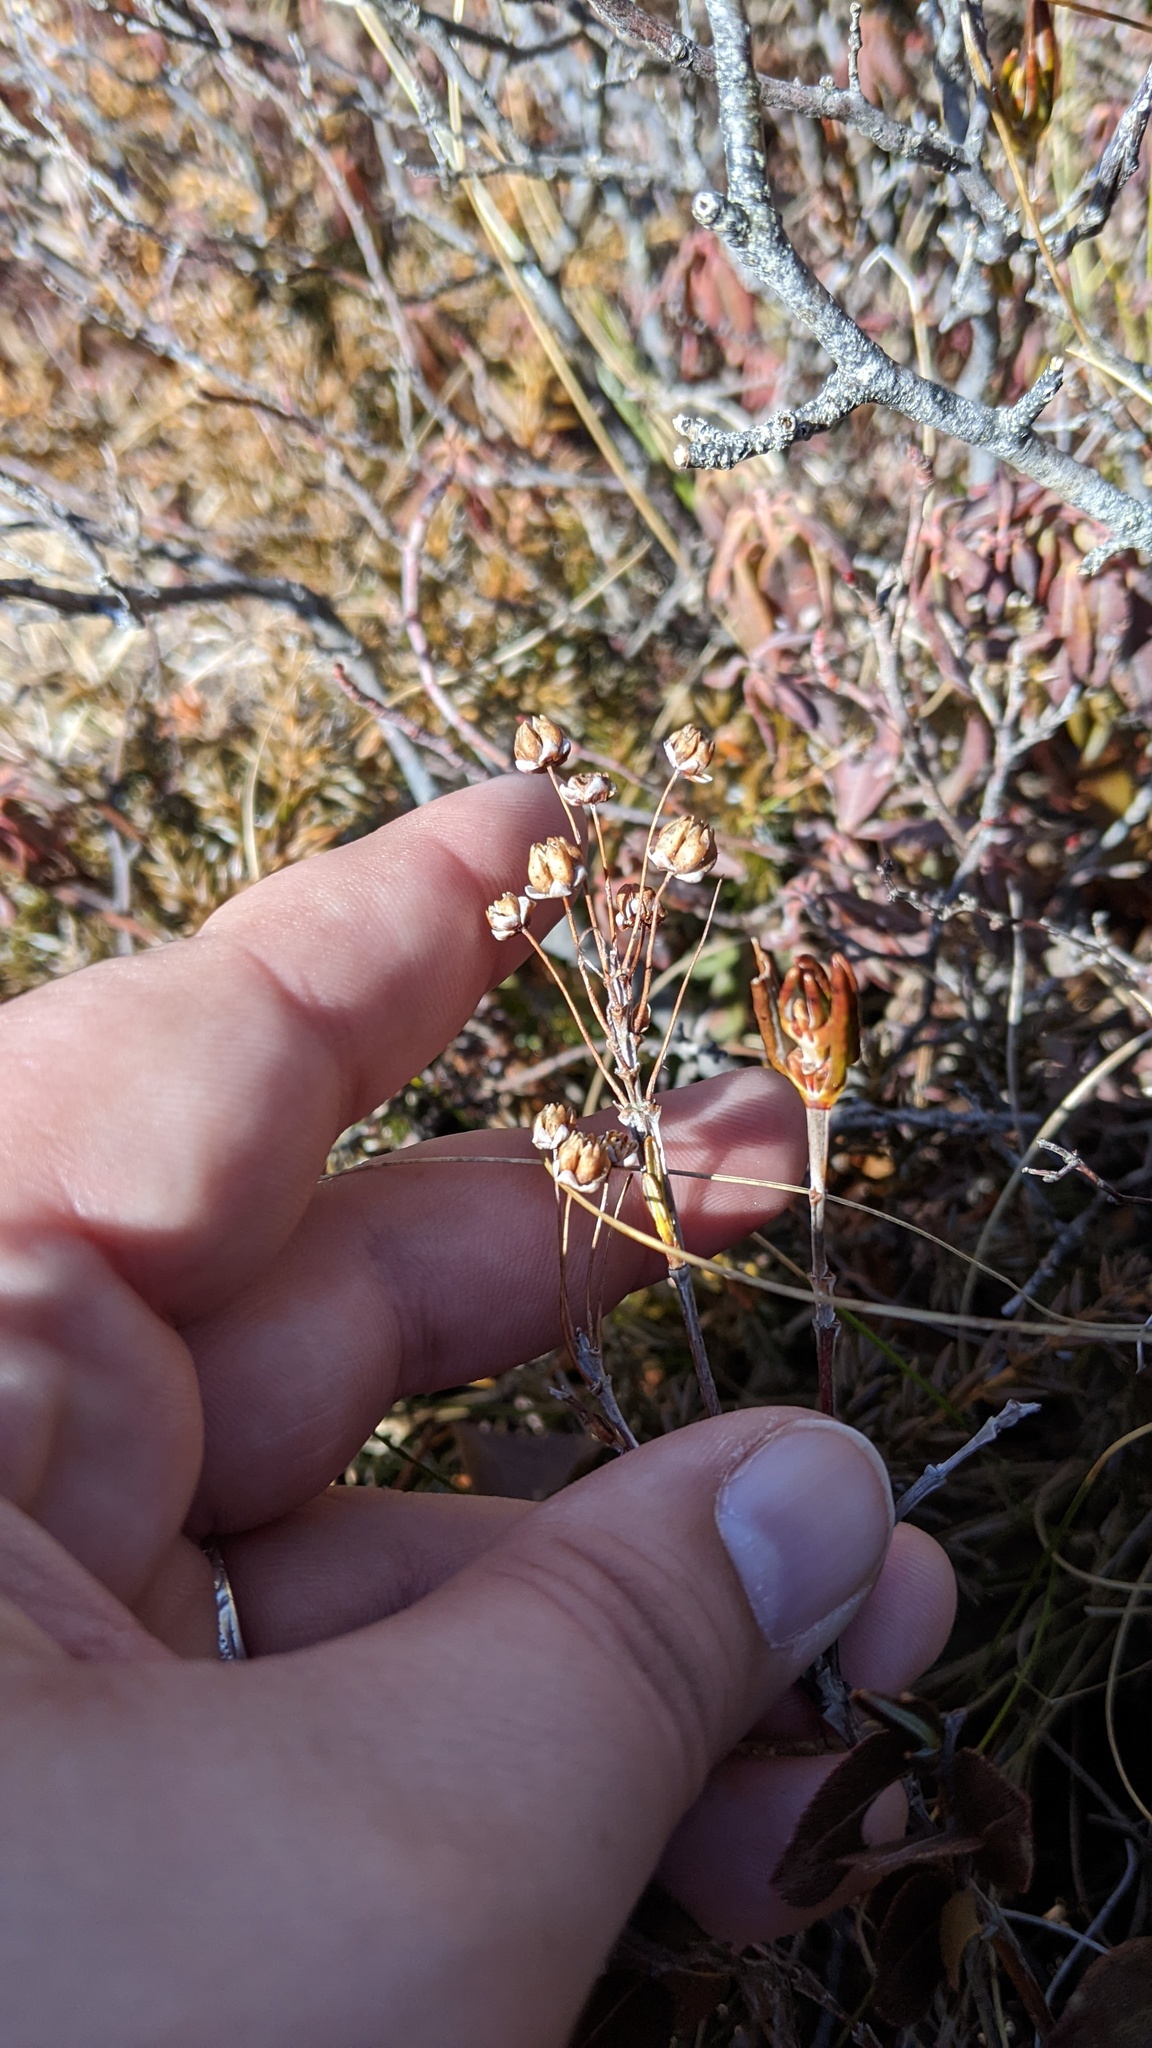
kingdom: Plantae
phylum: Tracheophyta
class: Magnoliopsida
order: Ericales
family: Ericaceae
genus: Kalmia
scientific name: Kalmia polifolia
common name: Bog-laurel
